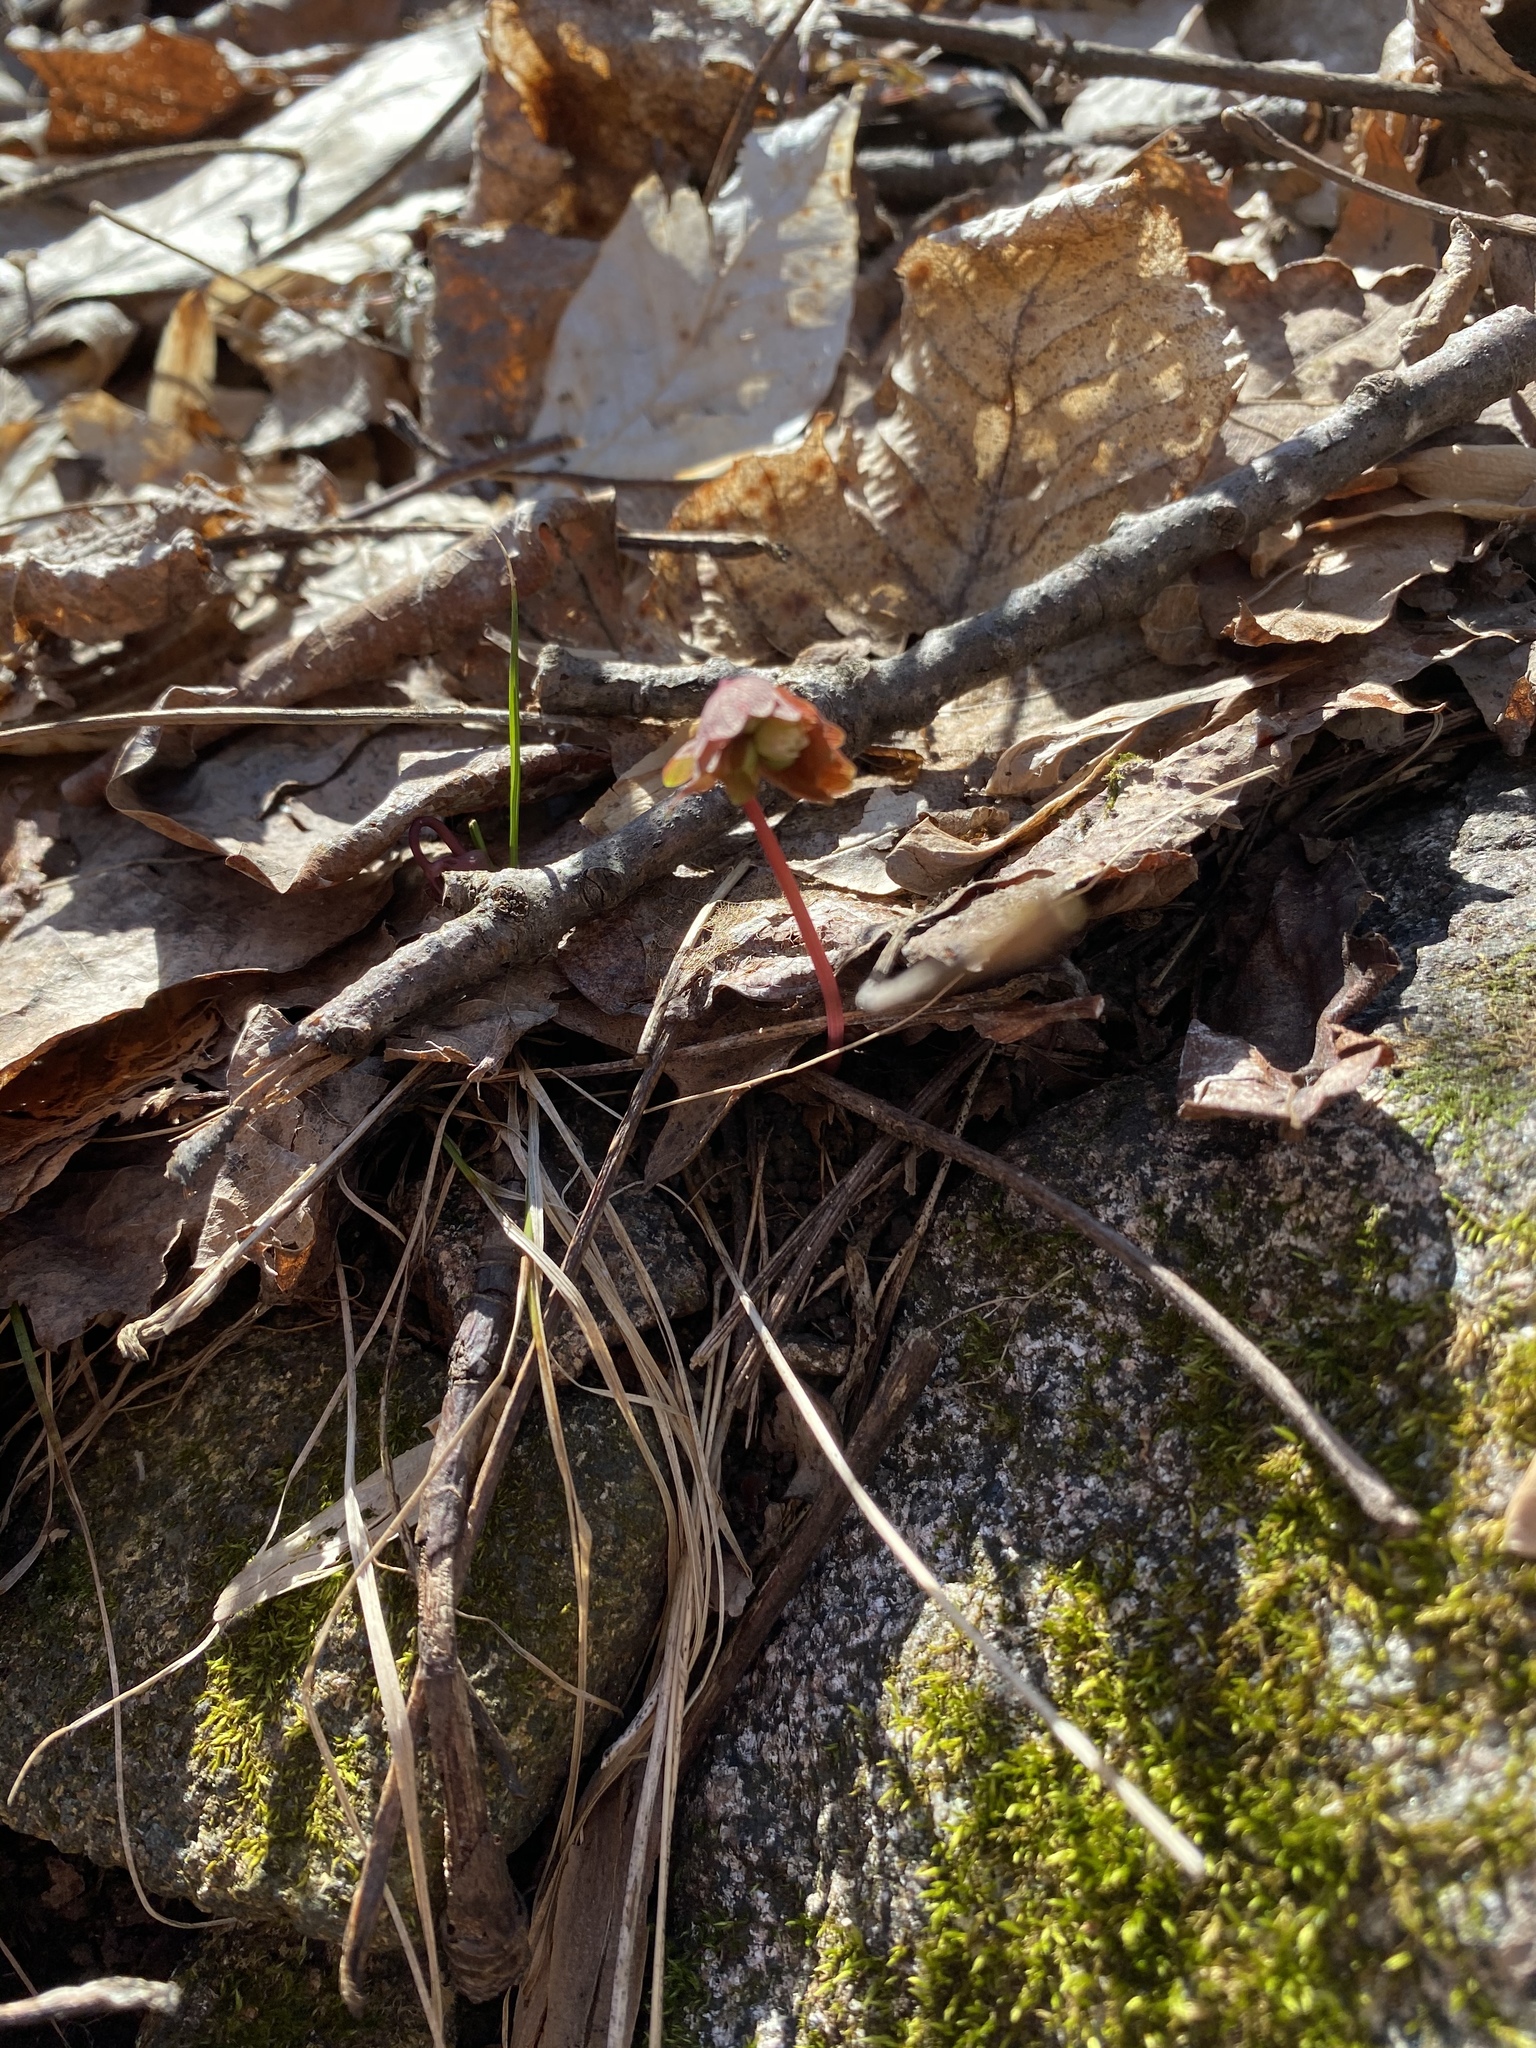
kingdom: Plantae
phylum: Tracheophyta
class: Magnoliopsida
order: Ranunculales
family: Ranunculaceae
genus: Thalictrum
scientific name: Thalictrum thalictroides
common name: Rue-anemone
